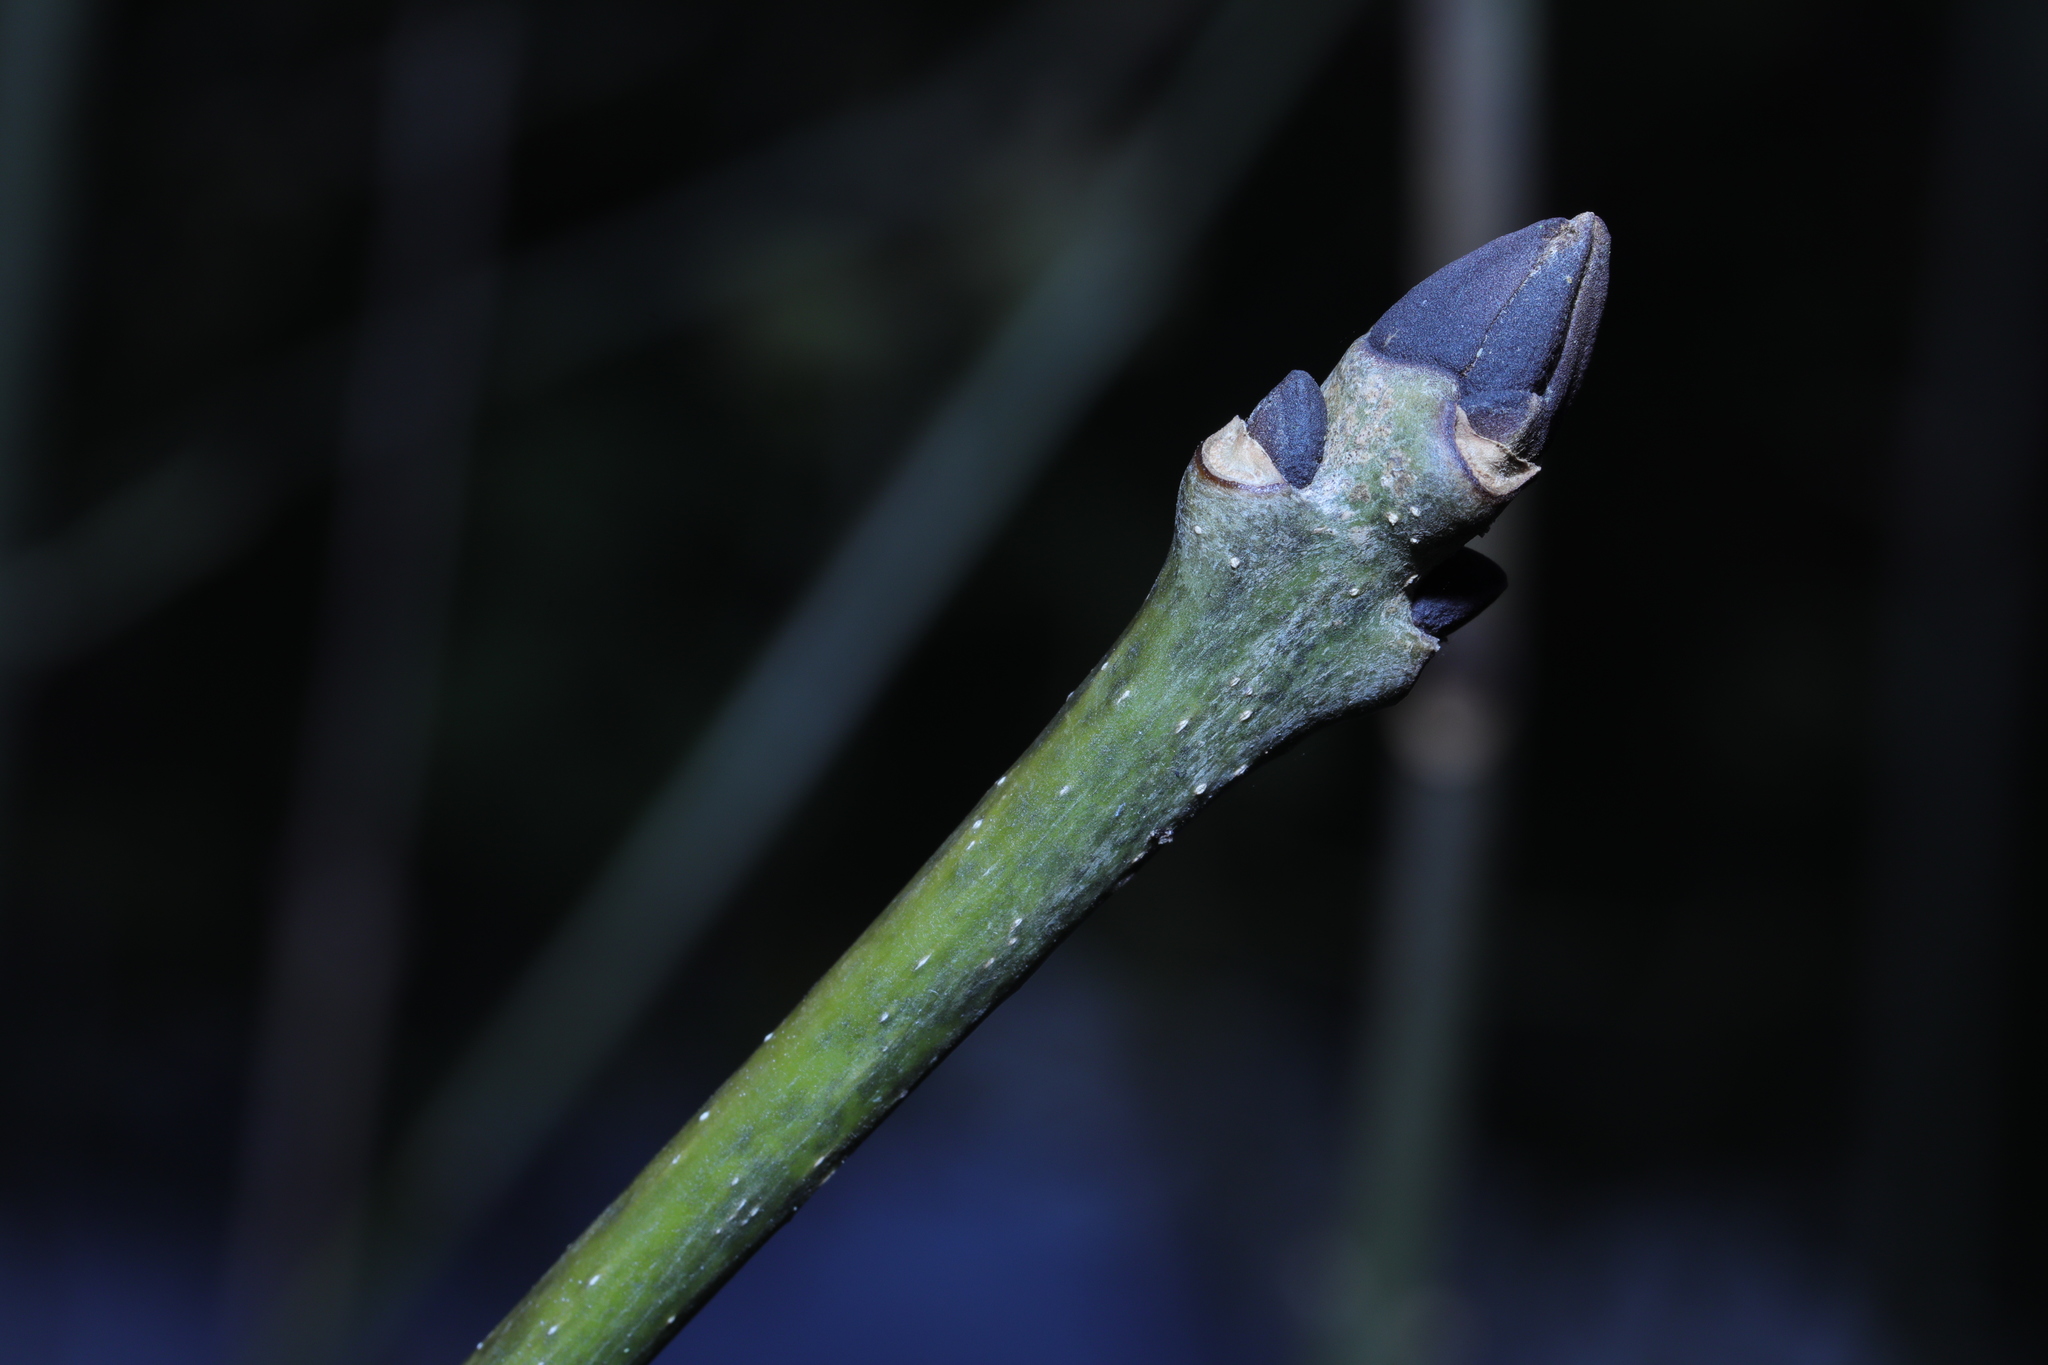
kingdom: Plantae
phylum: Tracheophyta
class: Magnoliopsida
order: Lamiales
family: Oleaceae
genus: Fraxinus
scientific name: Fraxinus excelsior
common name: European ash
